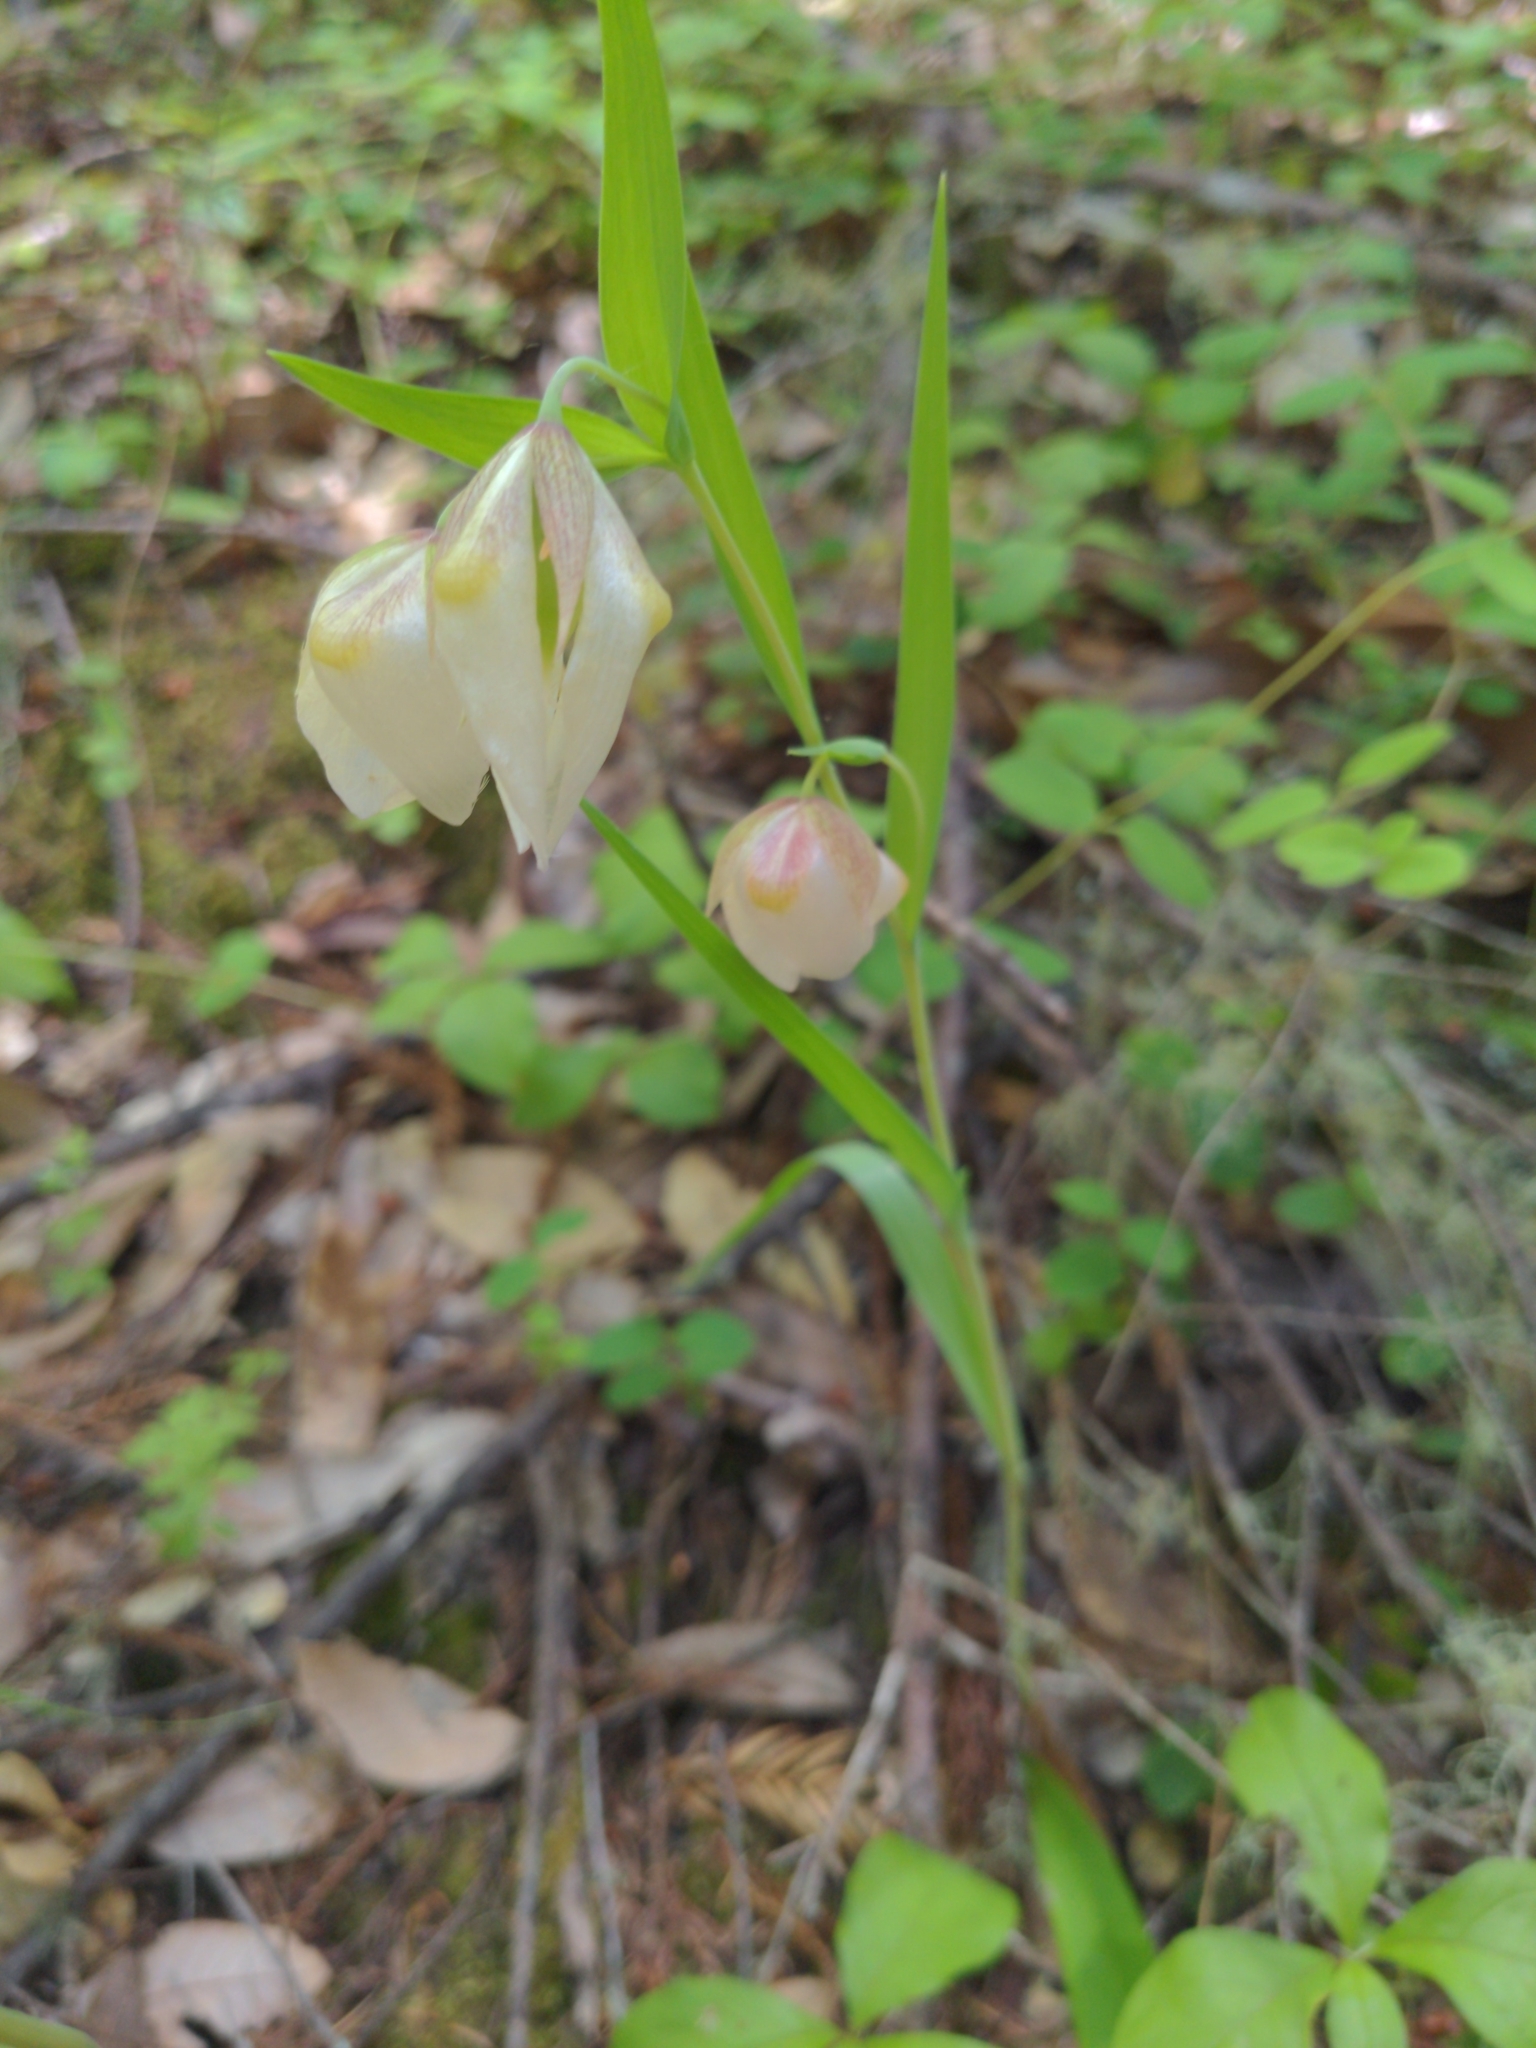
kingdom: Plantae
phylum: Tracheophyta
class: Liliopsida
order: Liliales
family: Liliaceae
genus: Calochortus
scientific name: Calochortus albus
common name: Fairy-lantern
